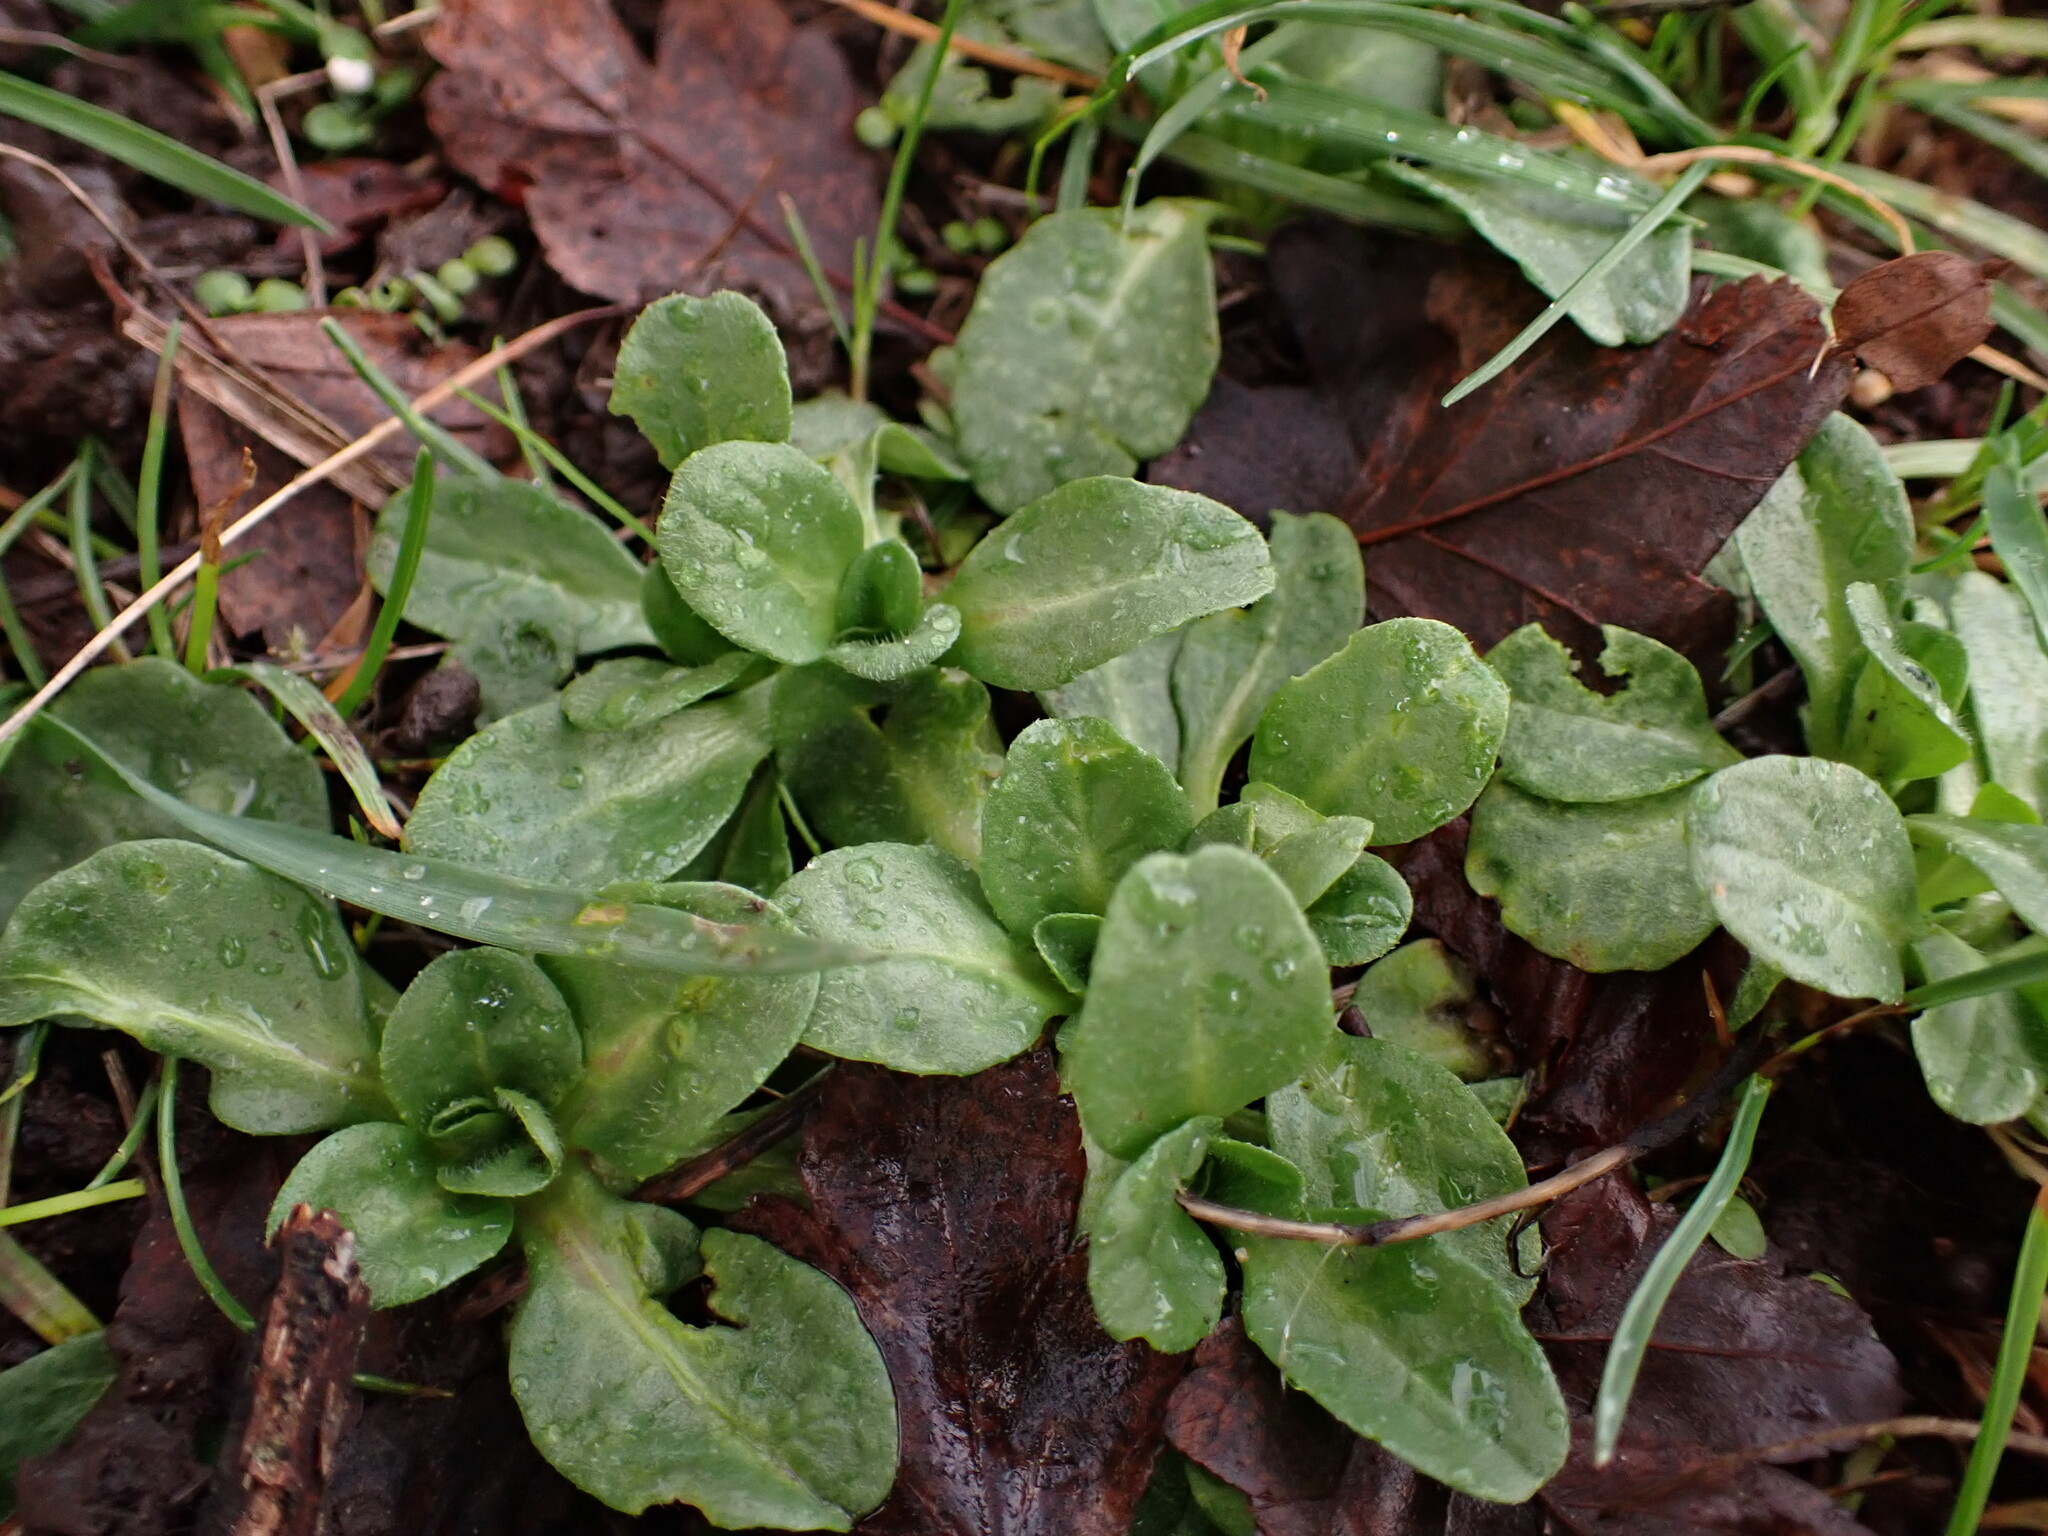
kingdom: Plantae
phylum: Tracheophyta
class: Magnoliopsida
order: Asterales
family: Asteraceae
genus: Bellis
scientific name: Bellis perennis
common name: Lawndaisy
